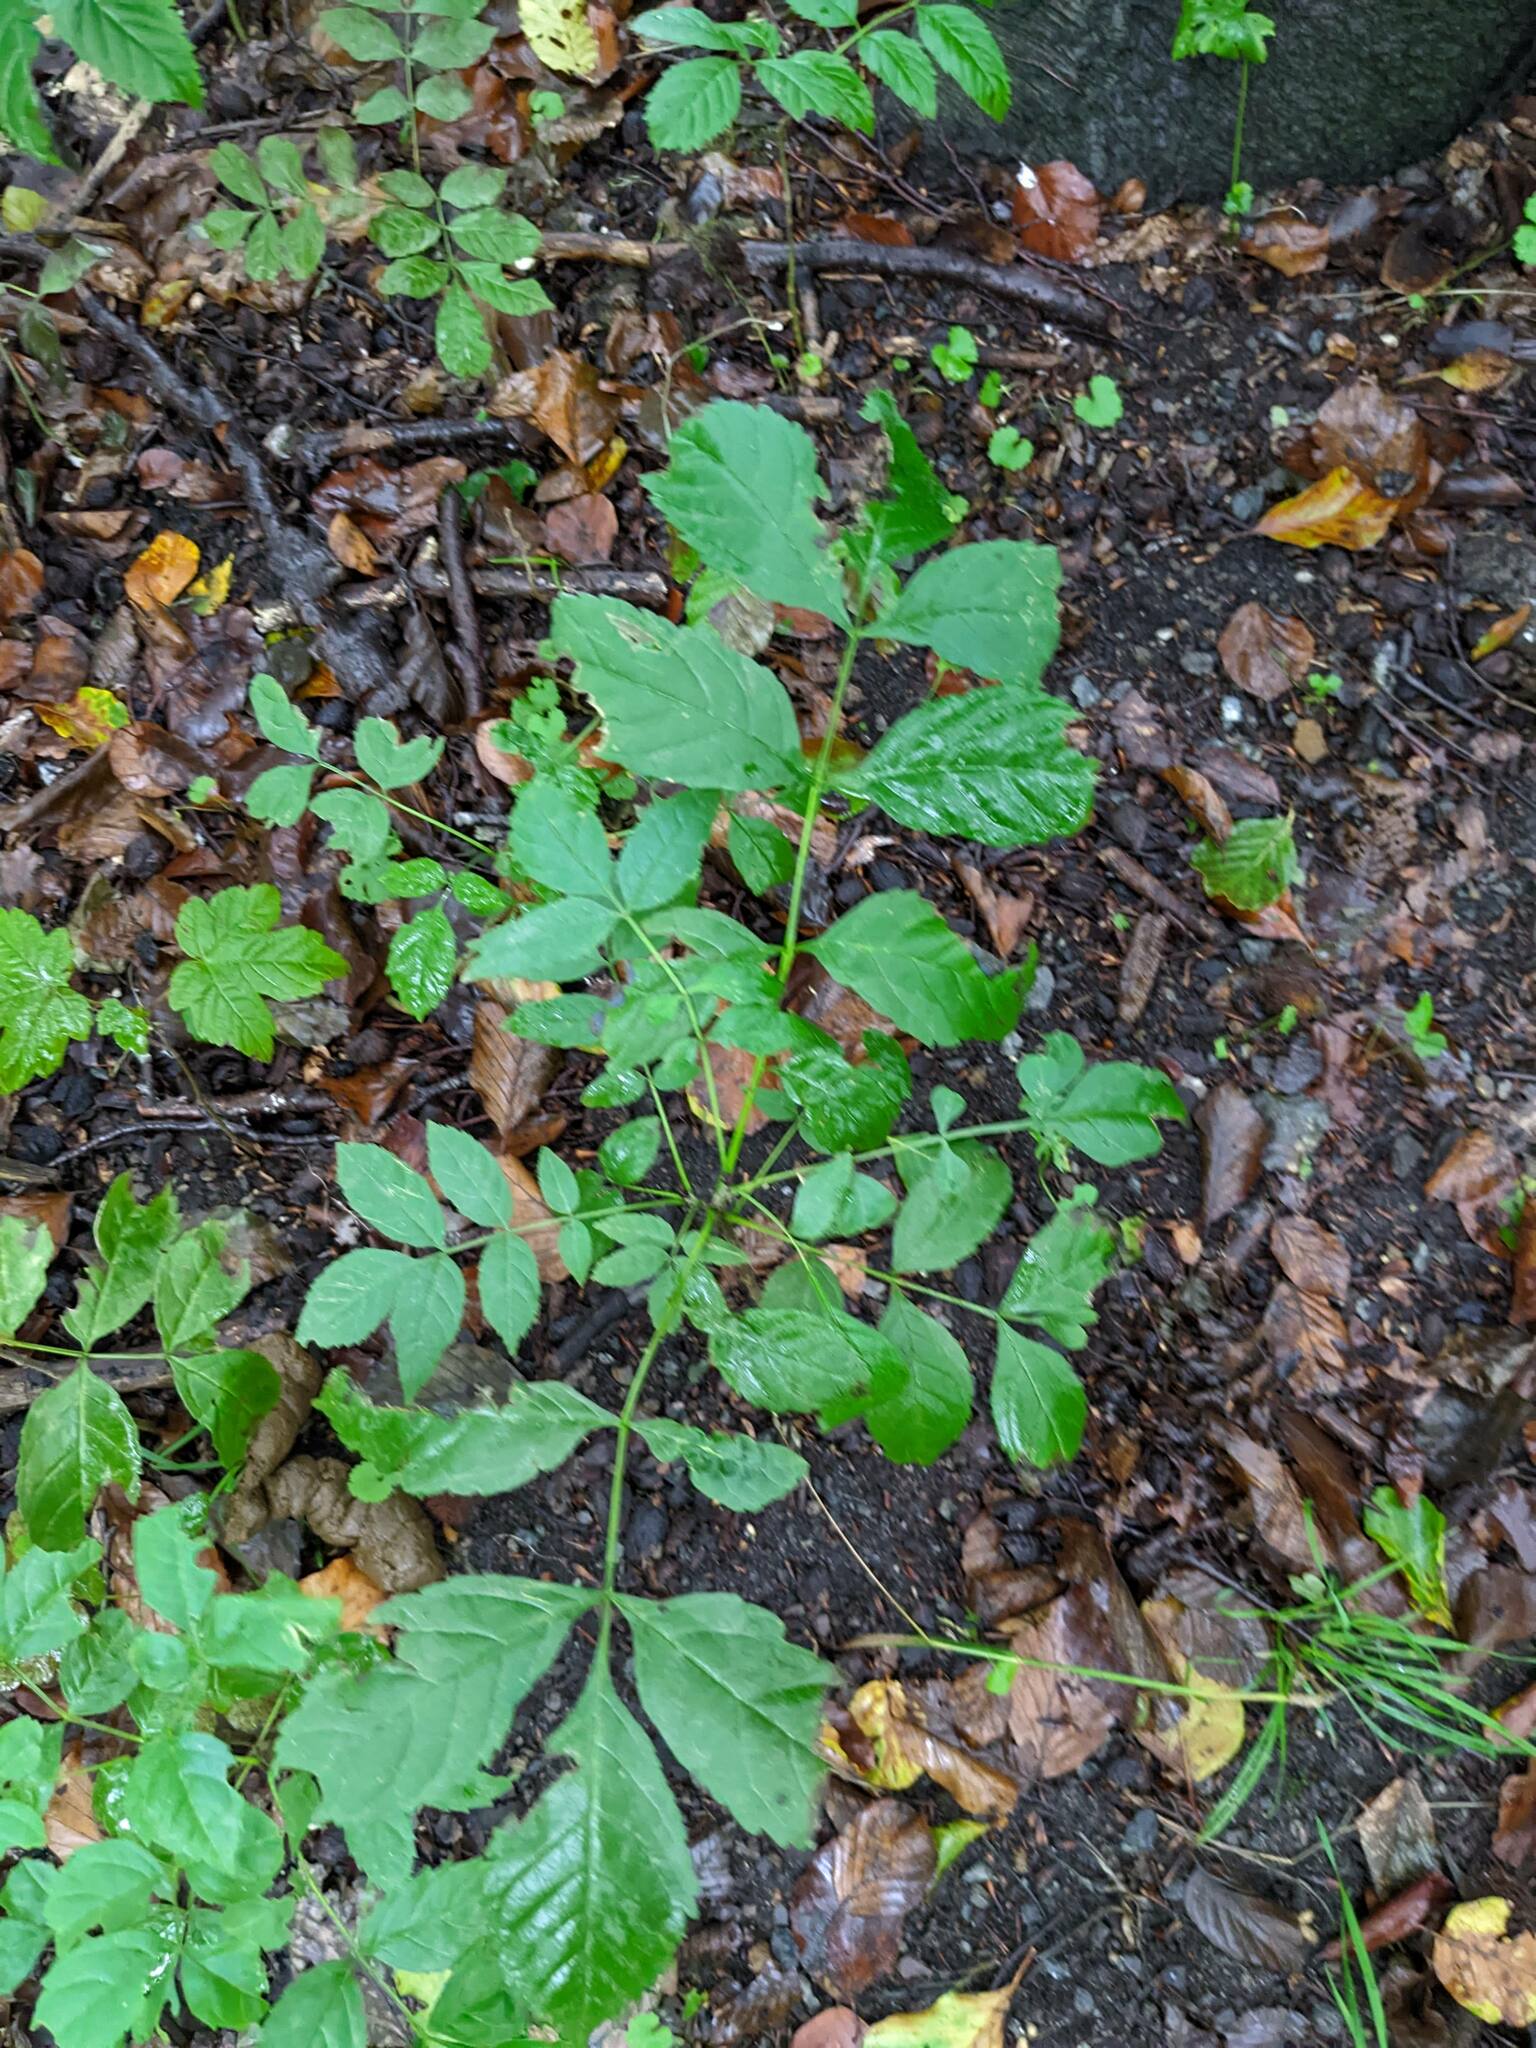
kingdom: Plantae
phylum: Tracheophyta
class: Magnoliopsida
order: Lamiales
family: Oleaceae
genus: Fraxinus
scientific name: Fraxinus excelsior
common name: European ash
